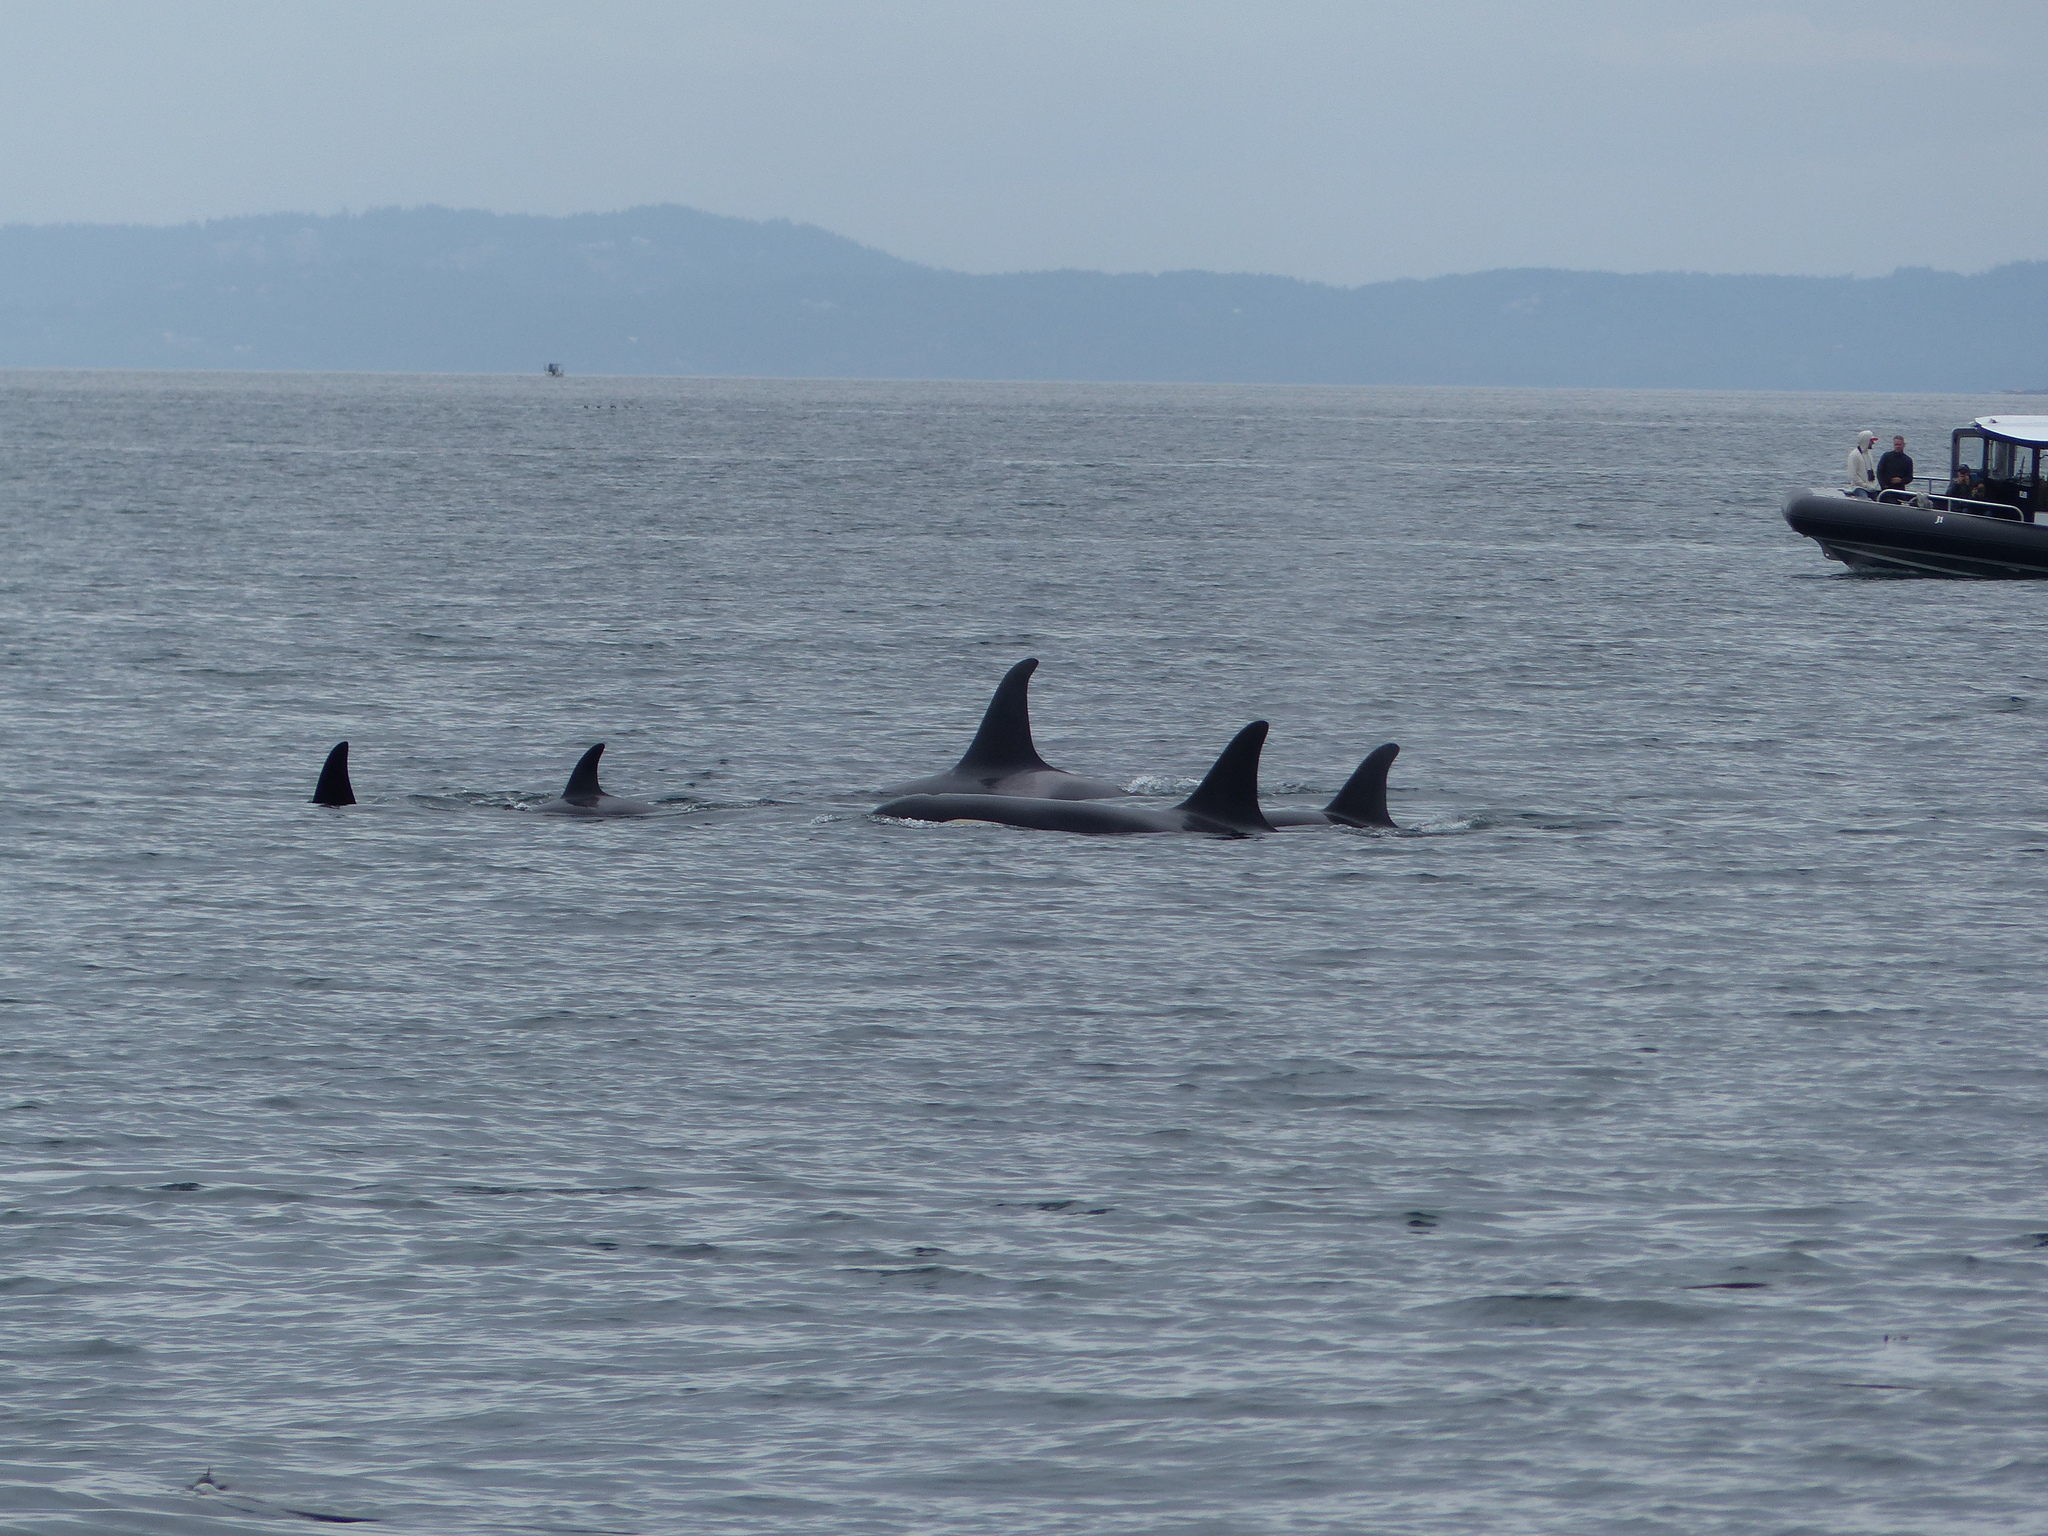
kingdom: Animalia
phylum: Chordata
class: Mammalia
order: Cetacea
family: Delphinidae
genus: Orcinus
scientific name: Orcinus orca
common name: Killer whale
